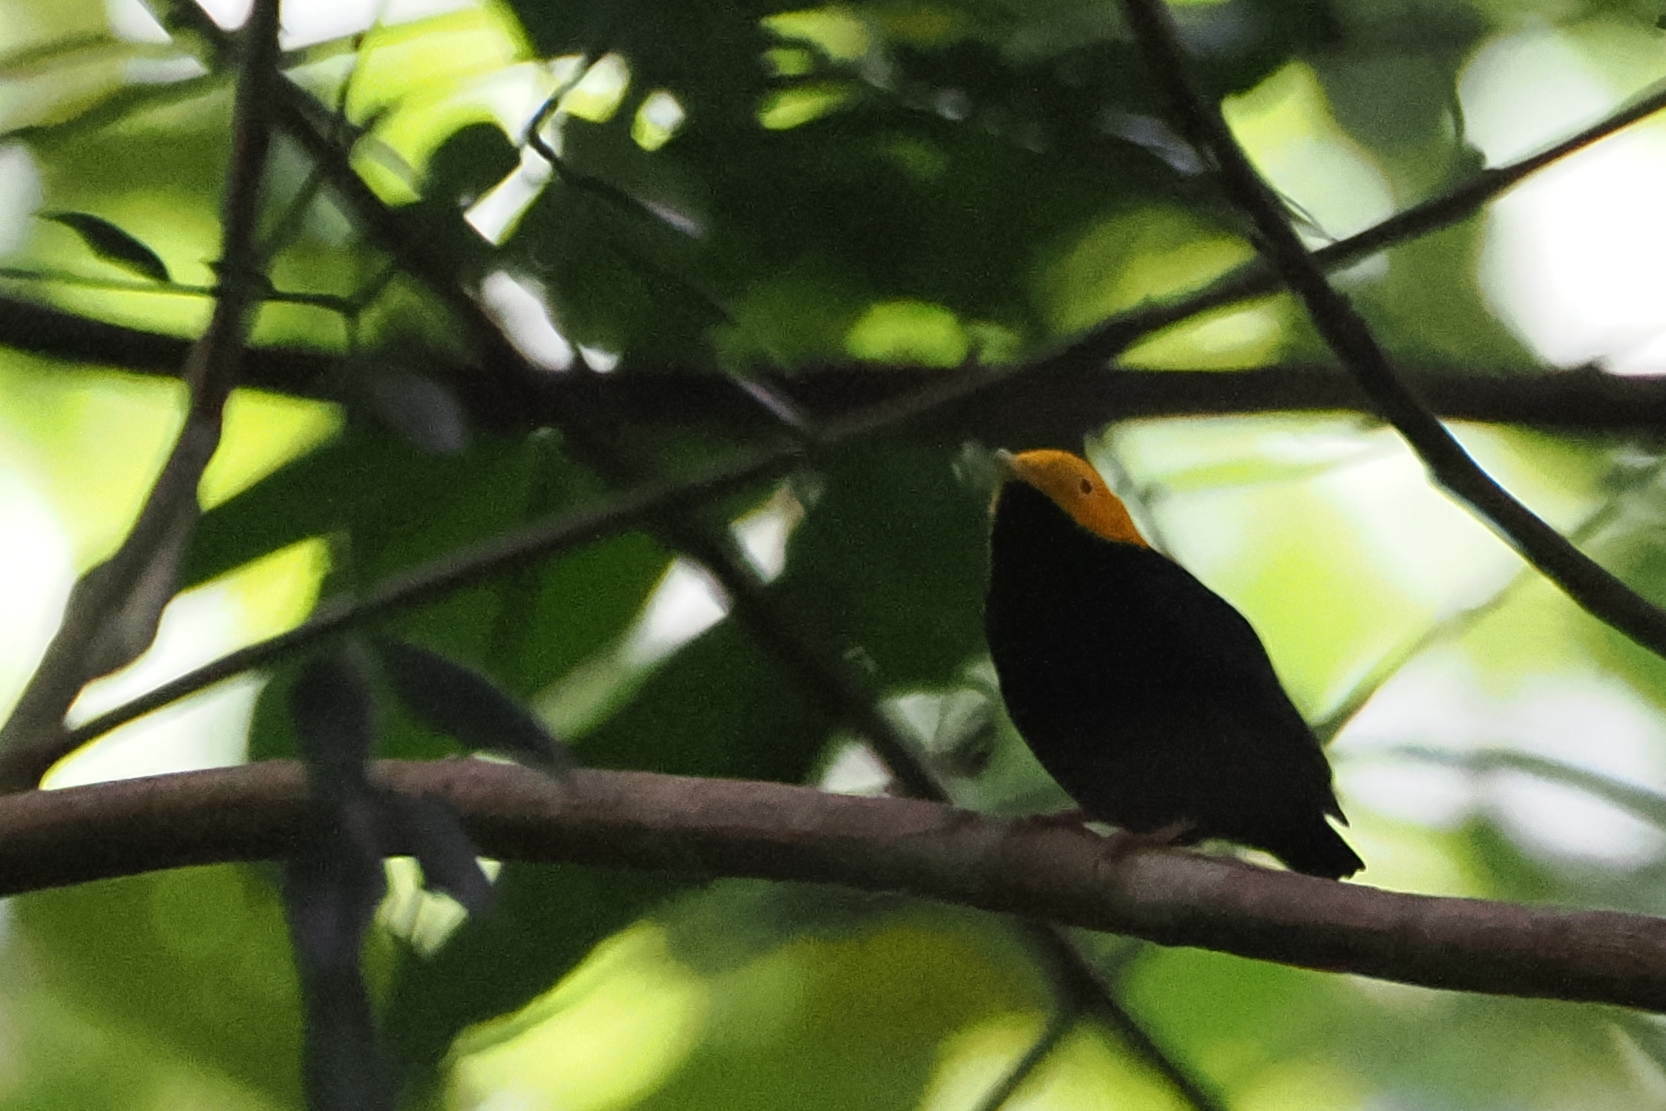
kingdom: Animalia
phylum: Chordata
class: Aves
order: Passeriformes
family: Pipridae
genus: Pipra
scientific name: Pipra erythrocephala
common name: Golden-headed manakin
